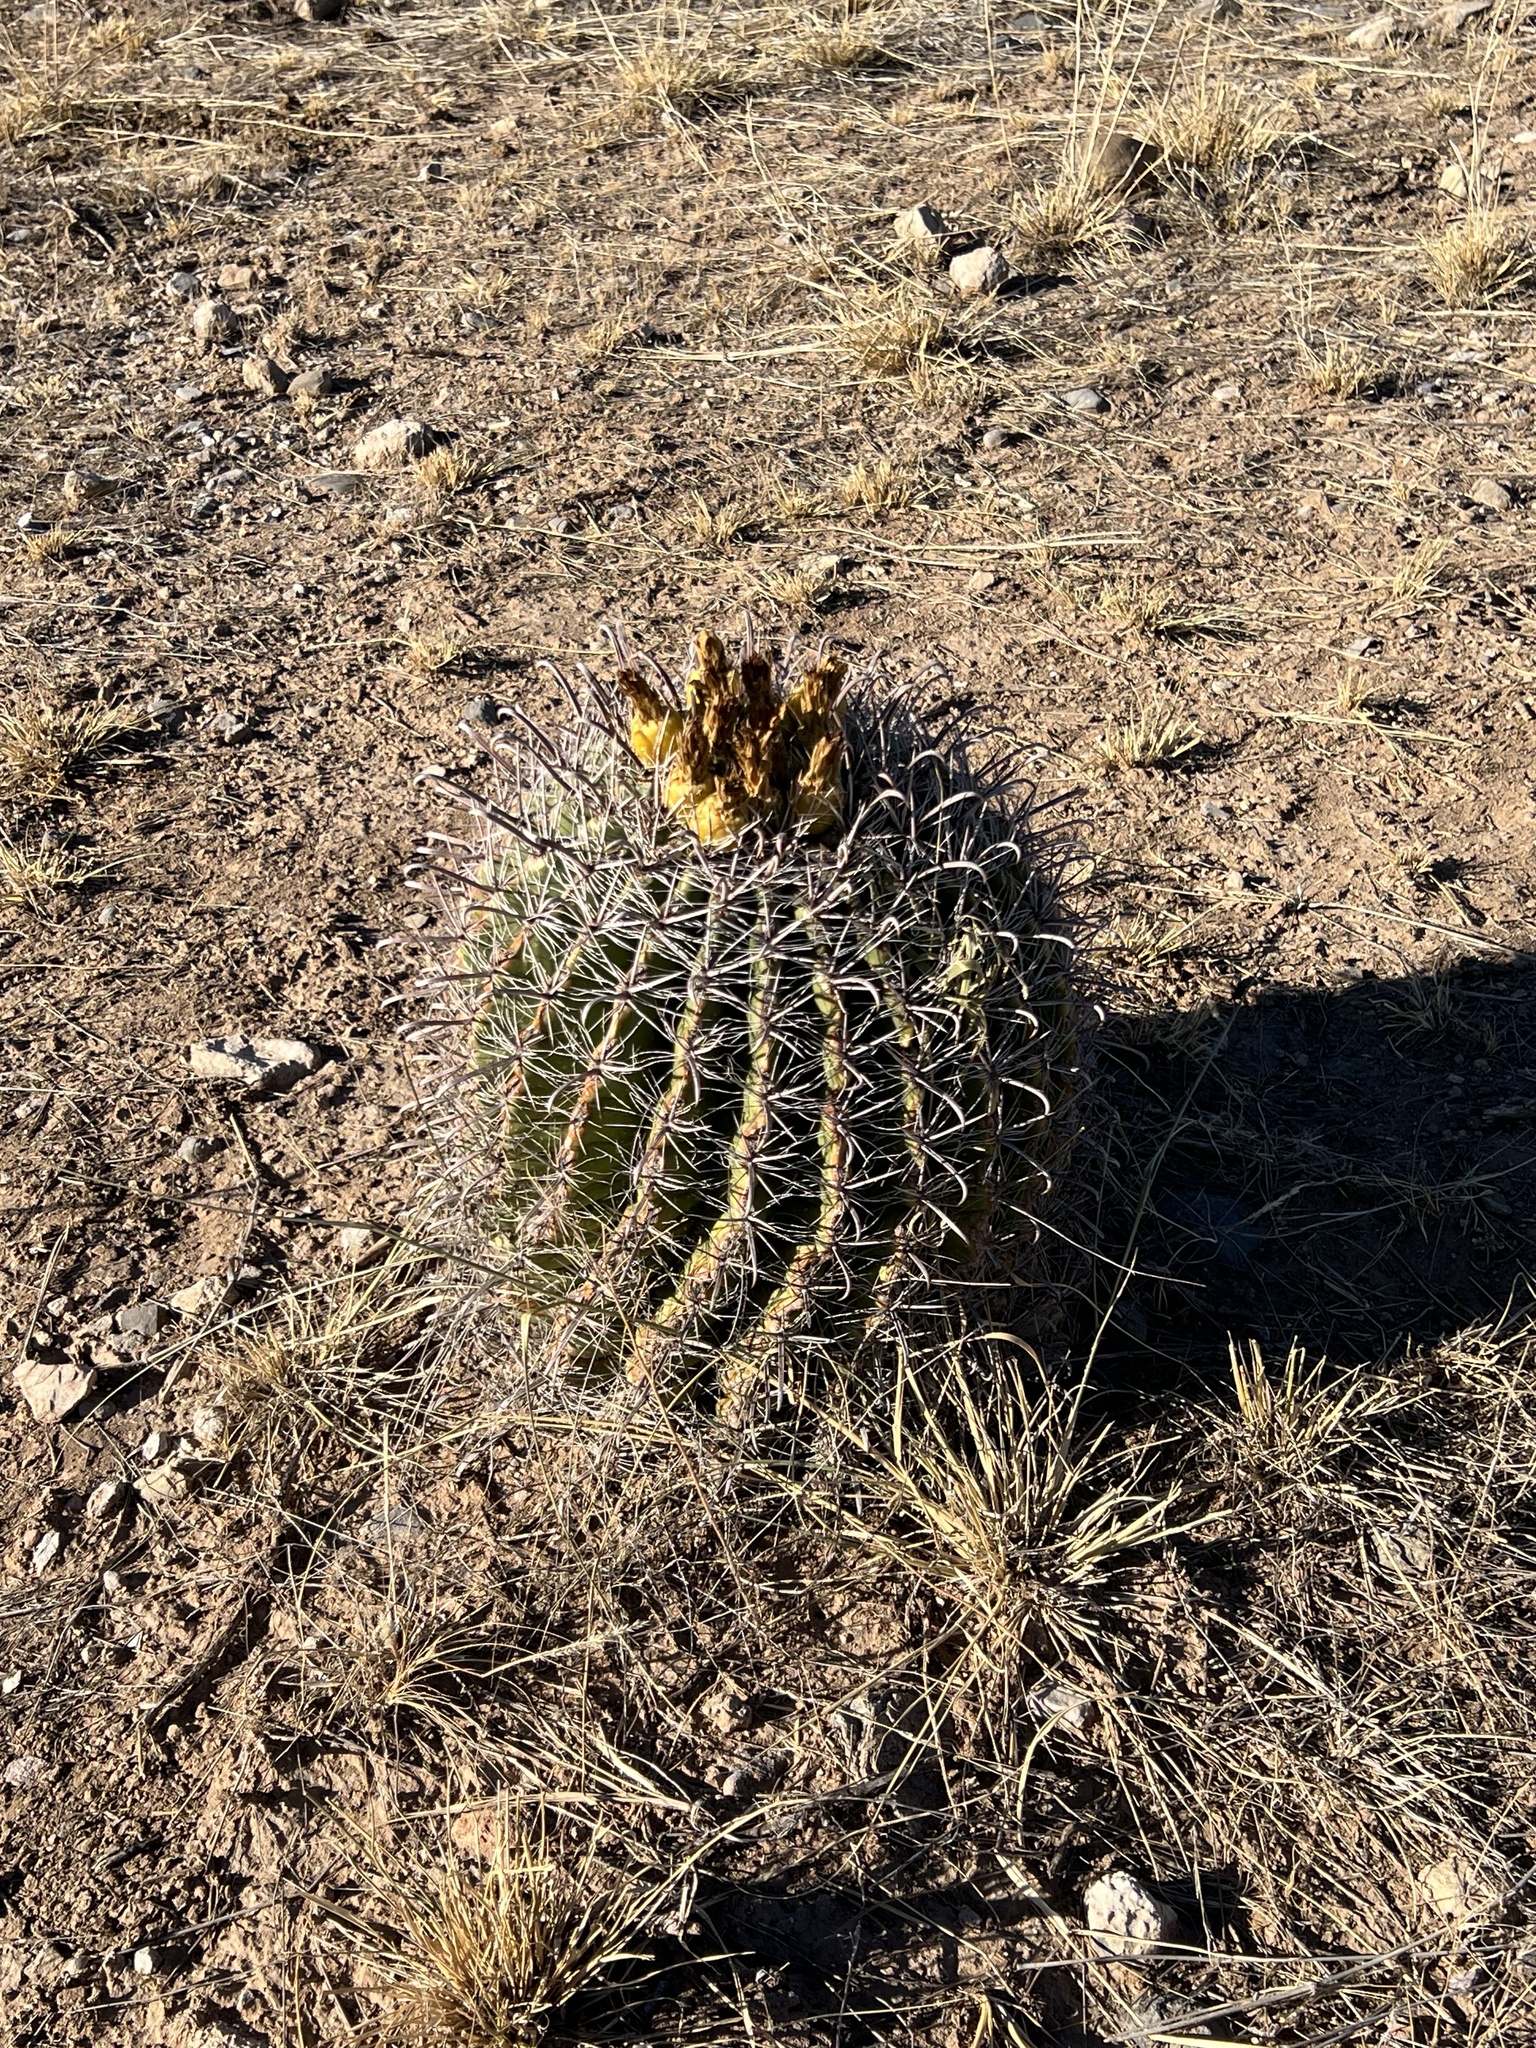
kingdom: Plantae
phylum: Tracheophyta
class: Magnoliopsida
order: Caryophyllales
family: Cactaceae
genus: Ferocactus
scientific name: Ferocactus wislizeni
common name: Candy barrel cactus
